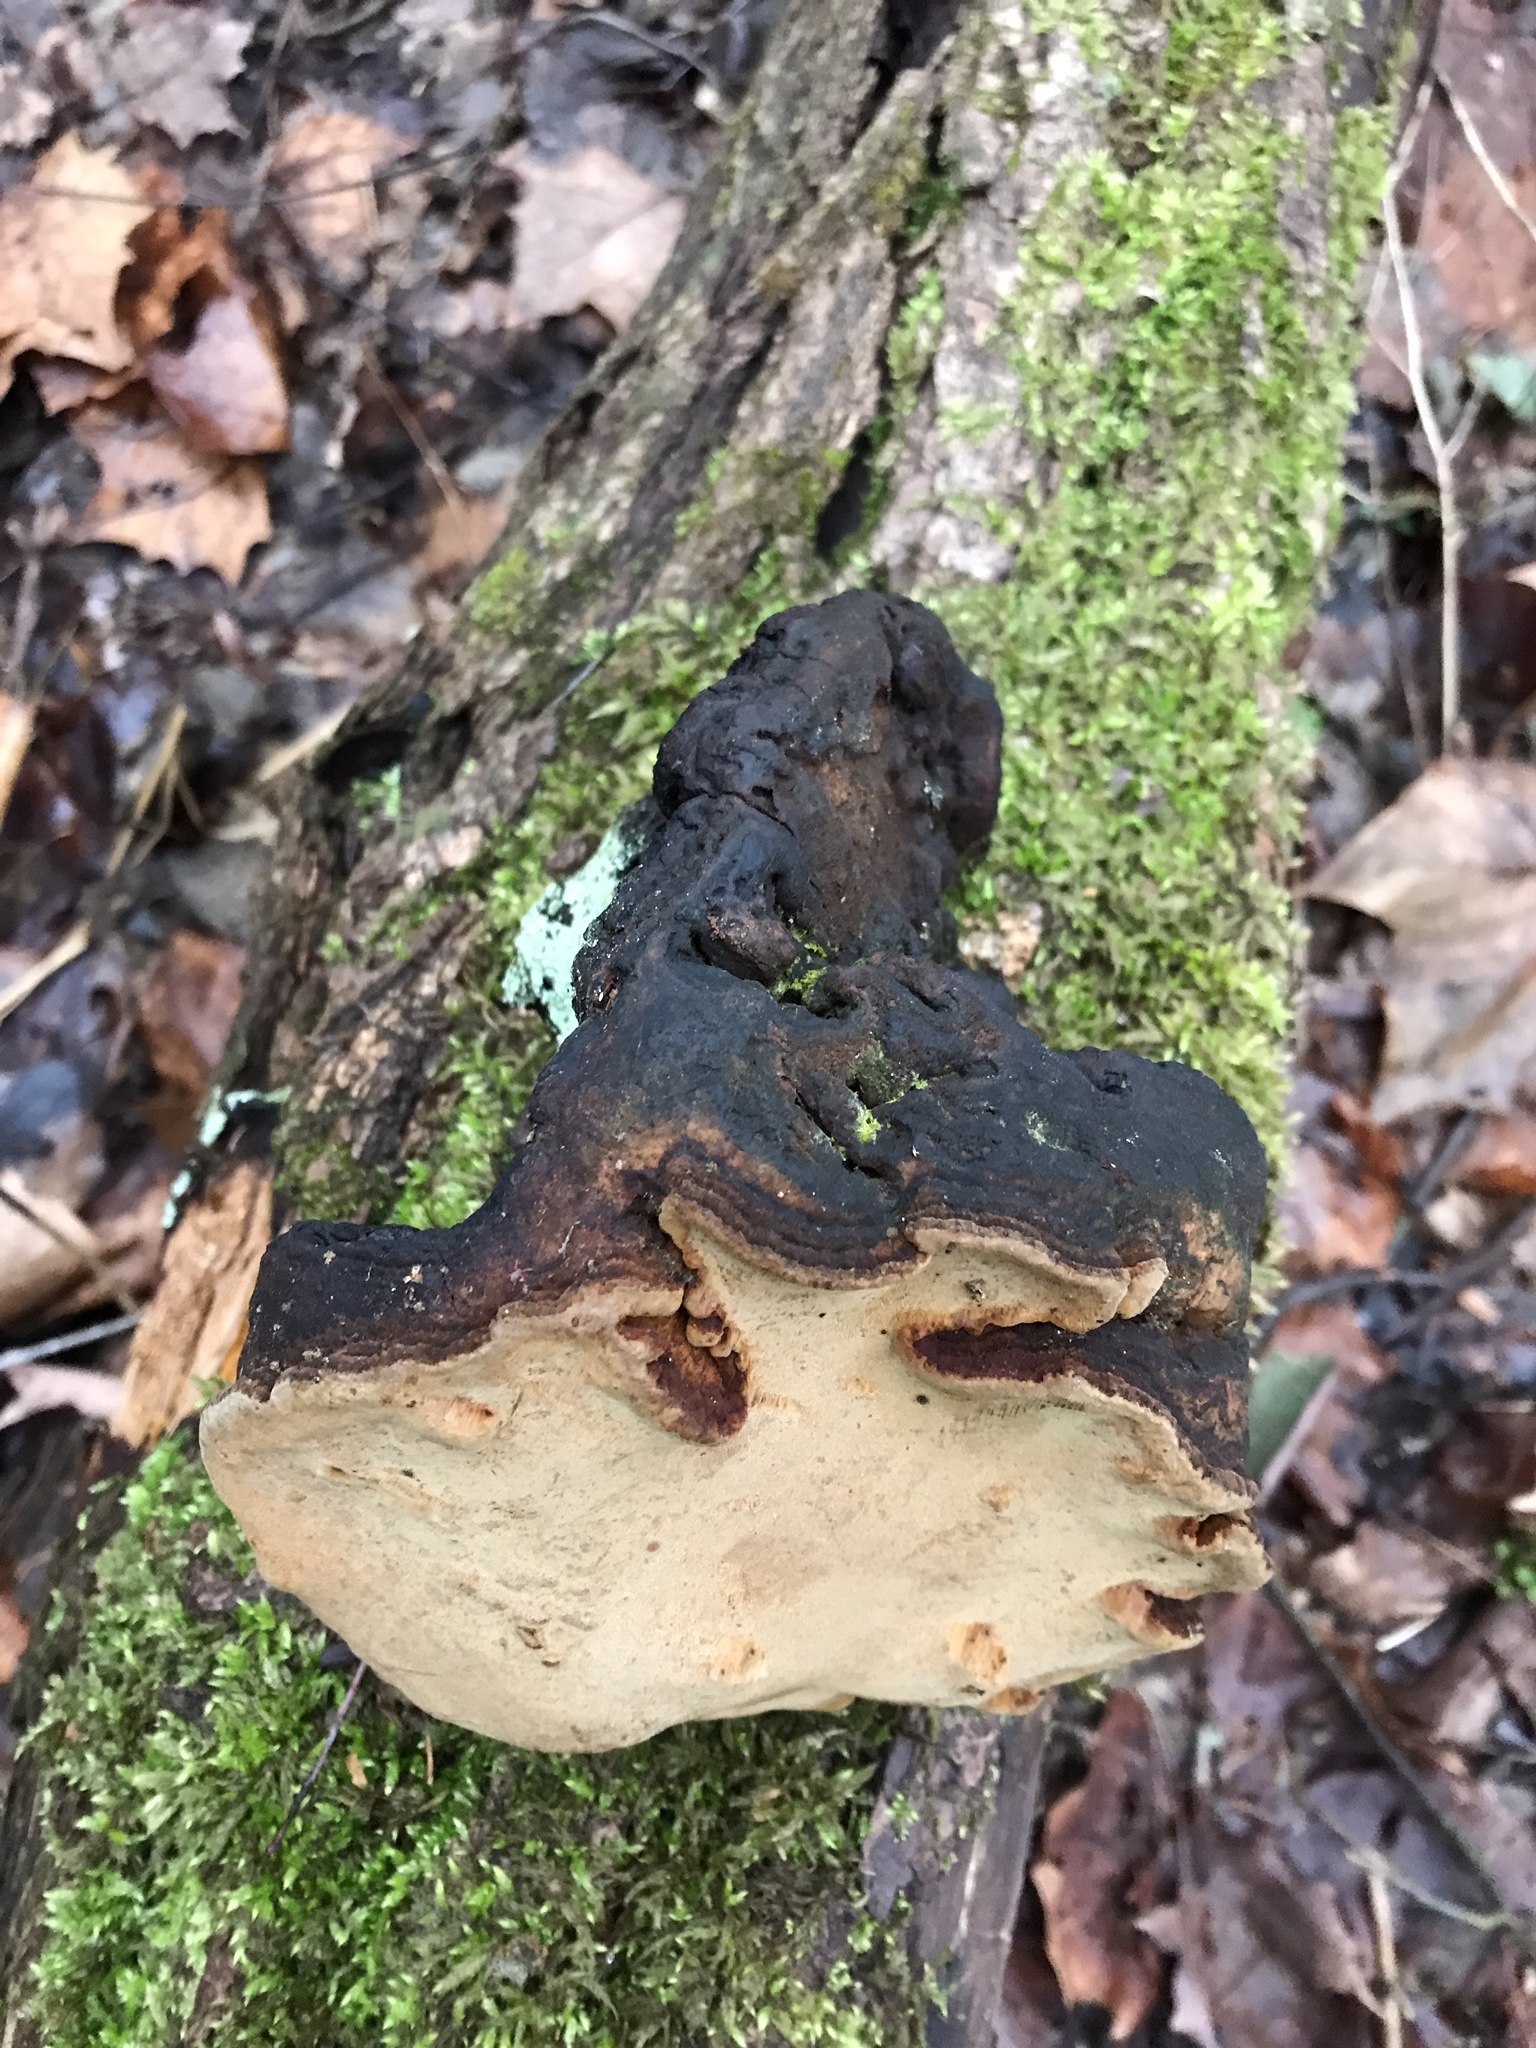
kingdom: Fungi
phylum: Basidiomycota
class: Agaricomycetes
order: Hymenochaetales
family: Hymenochaetaceae
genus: Phellinus
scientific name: Phellinus igniarius
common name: Willow bracket
